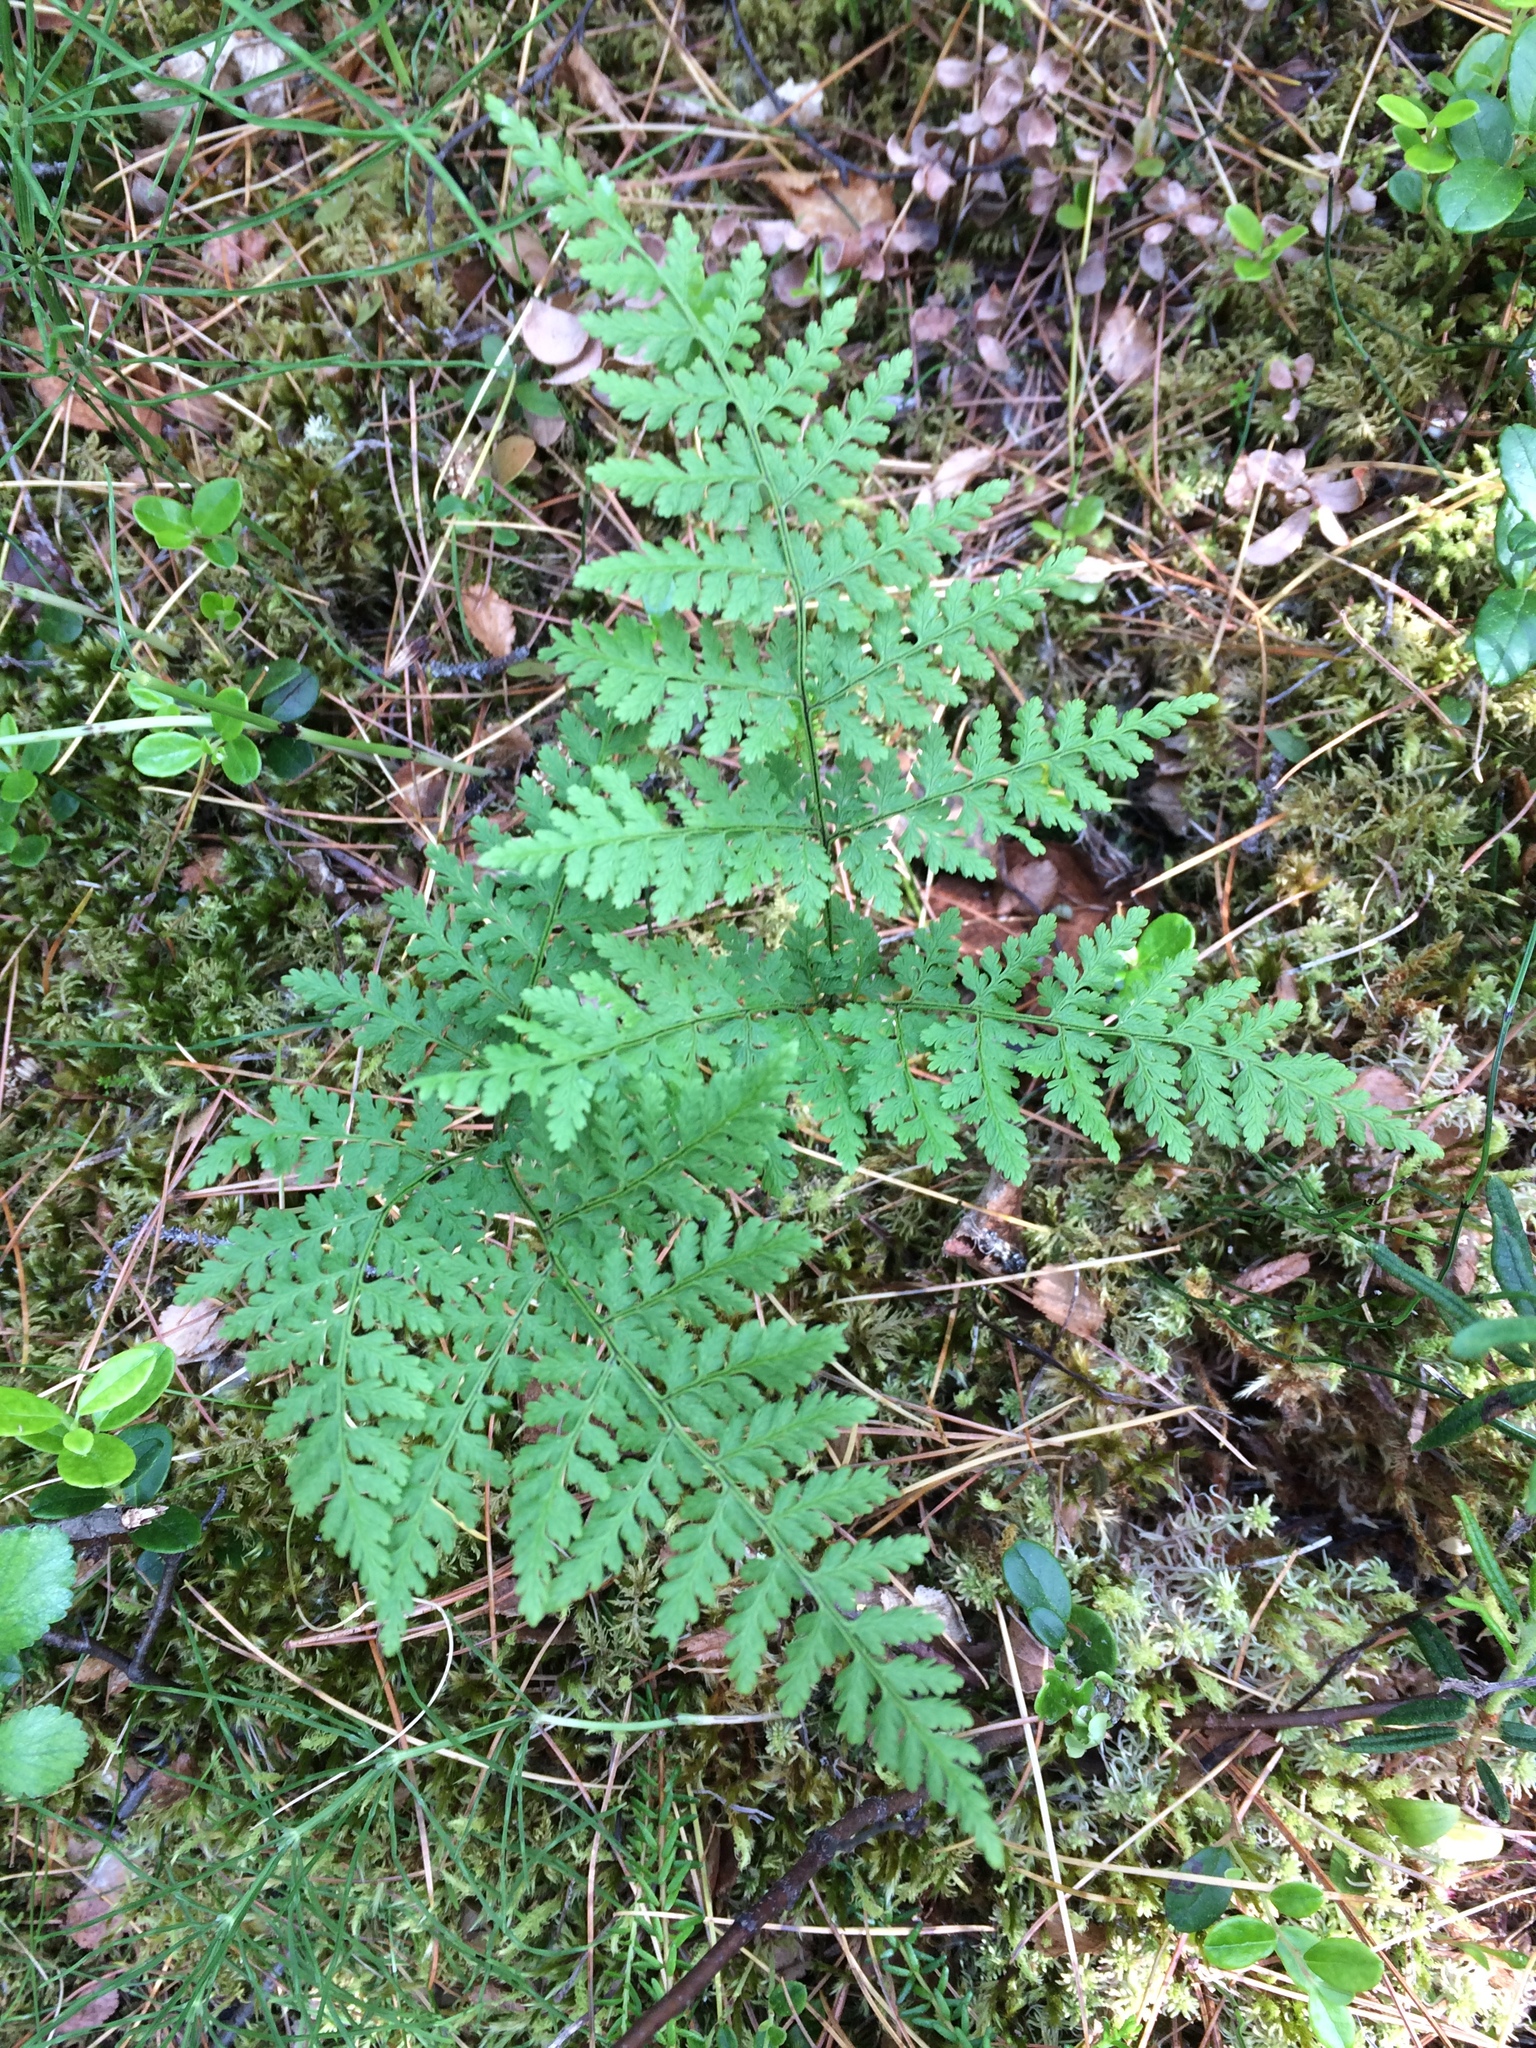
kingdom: Plantae
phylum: Tracheophyta
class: Polypodiopsida
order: Polypodiales
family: Cystopteridaceae
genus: Cystopteris
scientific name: Cystopteris montana
